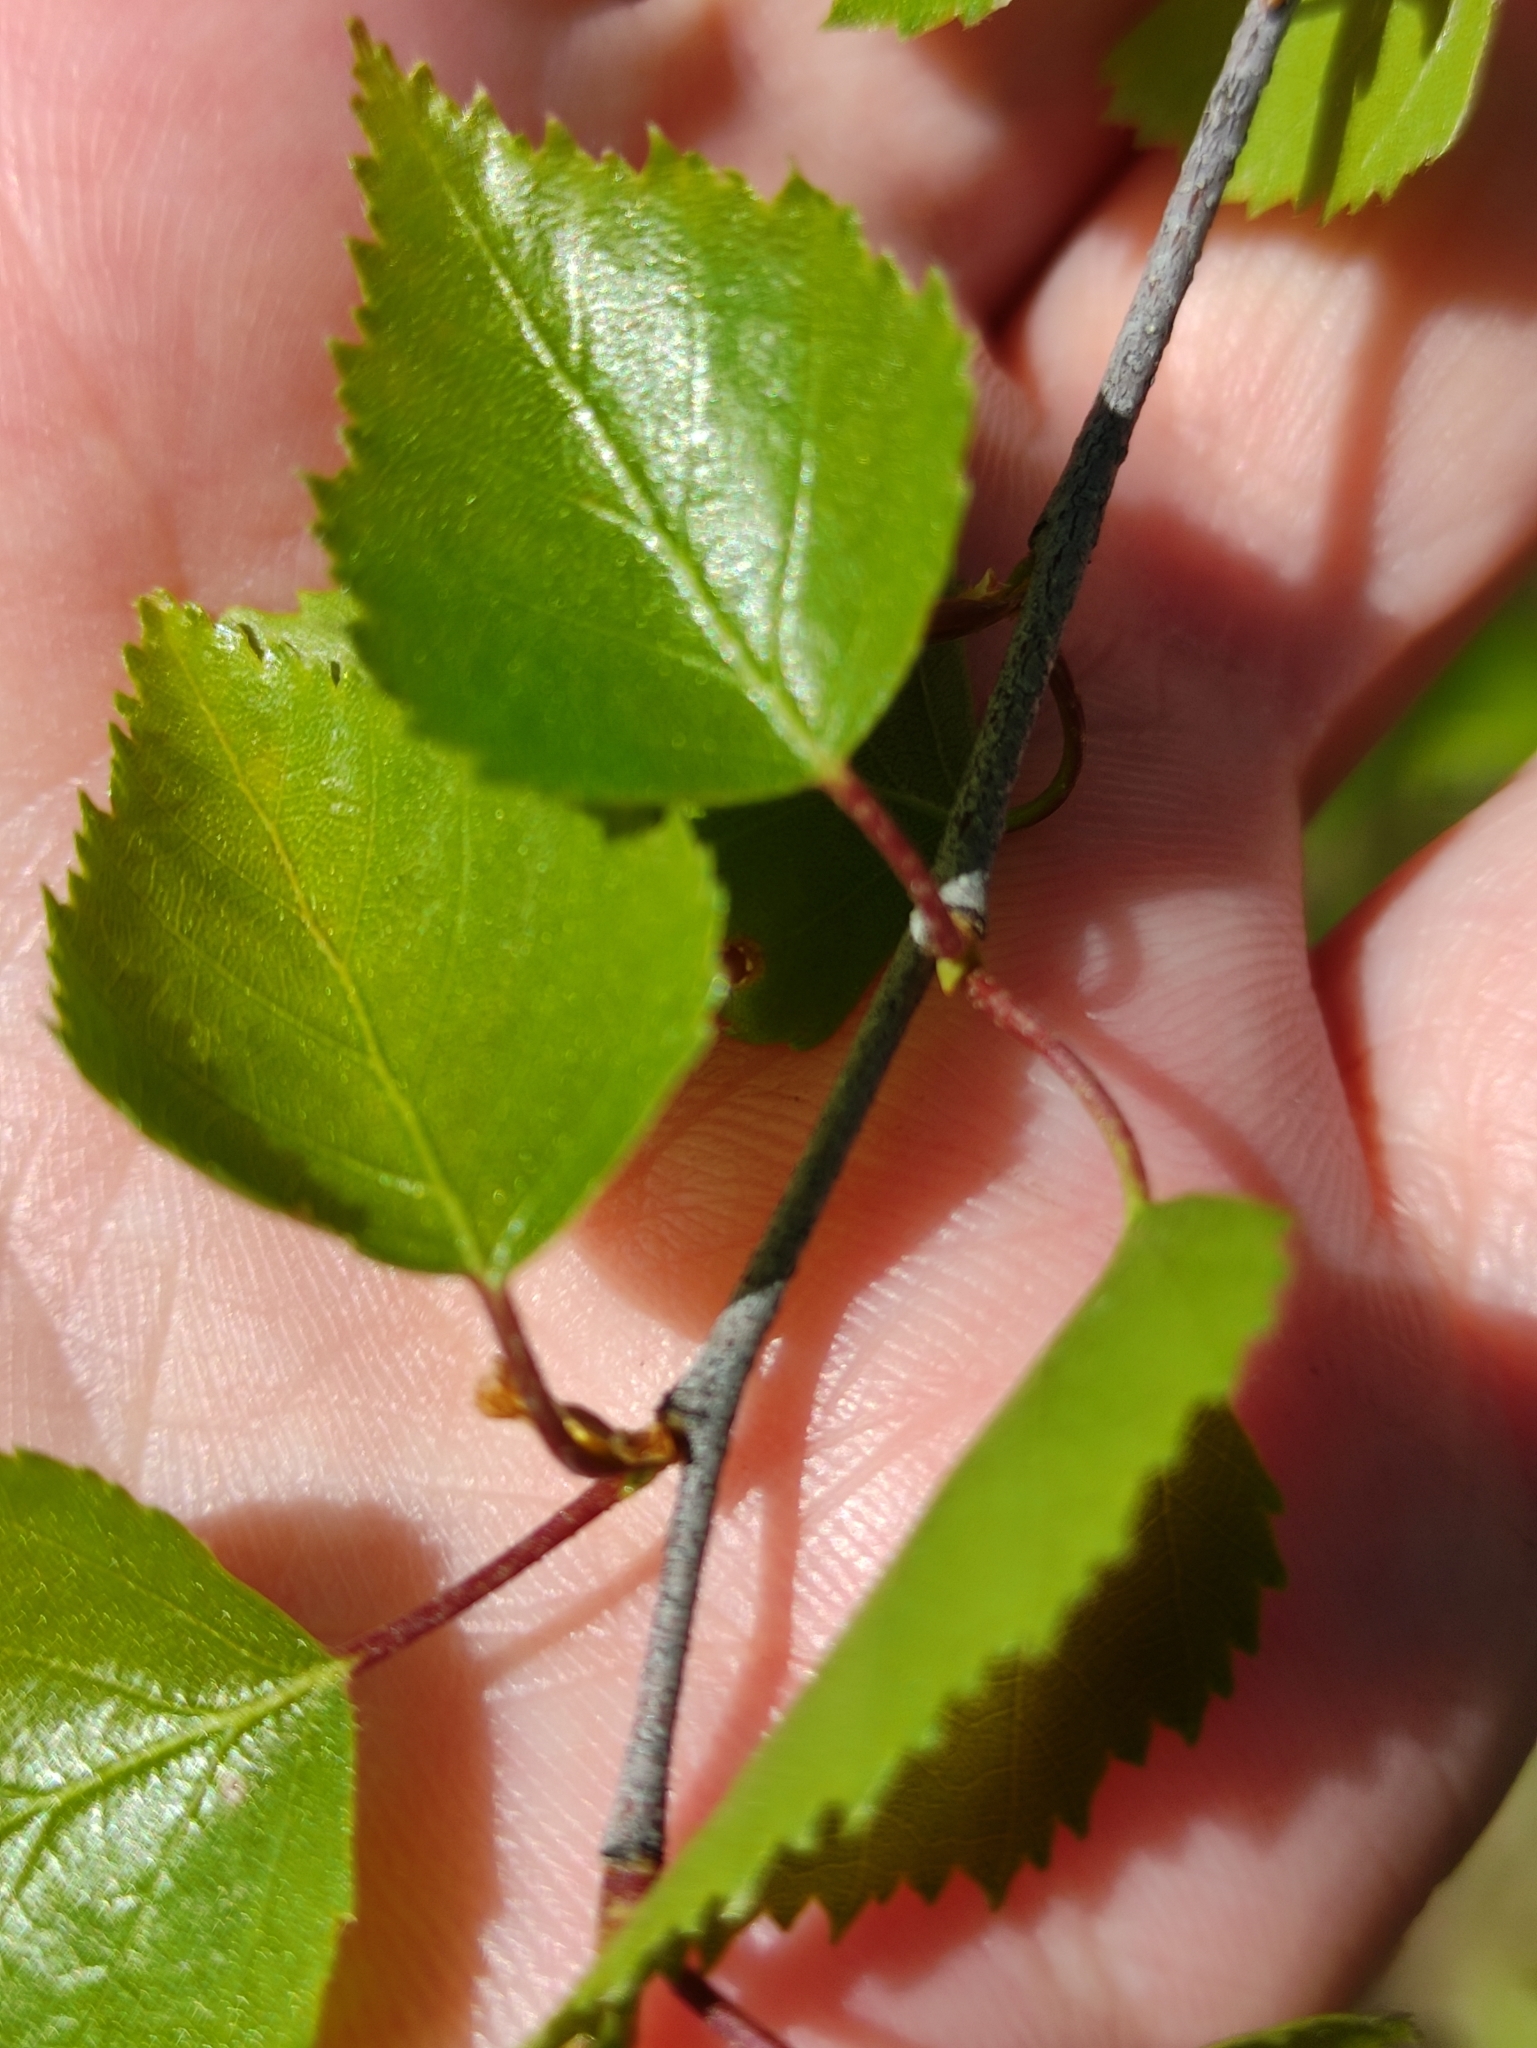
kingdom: Plantae
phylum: Tracheophyta
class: Magnoliopsida
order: Fagales
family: Betulaceae
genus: Betula
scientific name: Betula pendula
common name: Silver birch
